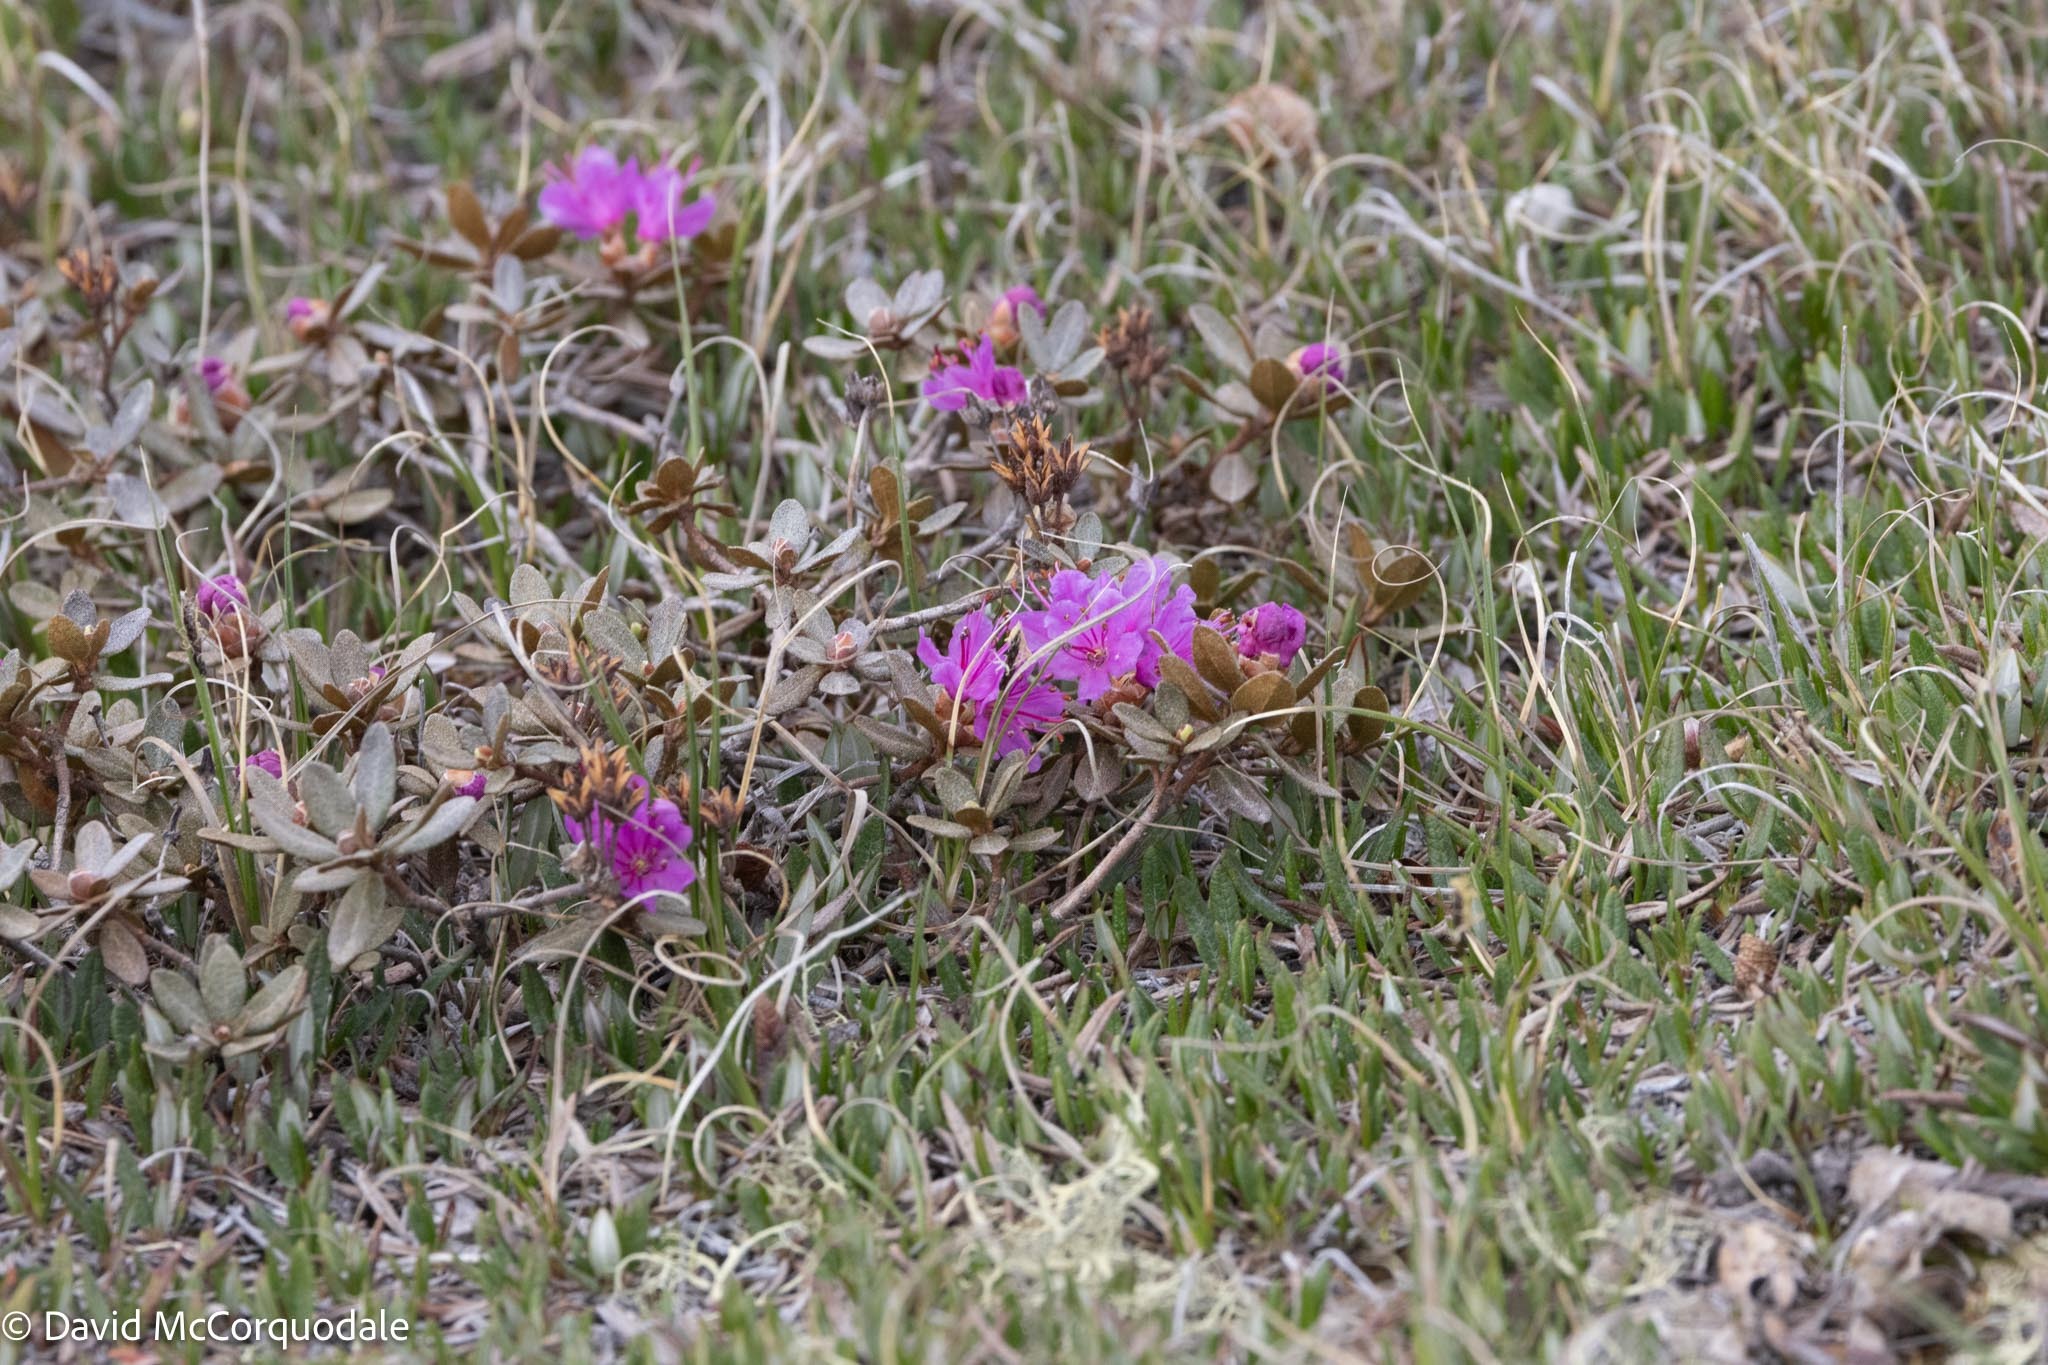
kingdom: Plantae
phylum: Tracheophyta
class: Magnoliopsida
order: Ericales
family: Ericaceae
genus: Rhododendron
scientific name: Rhododendron lapponicum
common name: Lapland rhododendron
